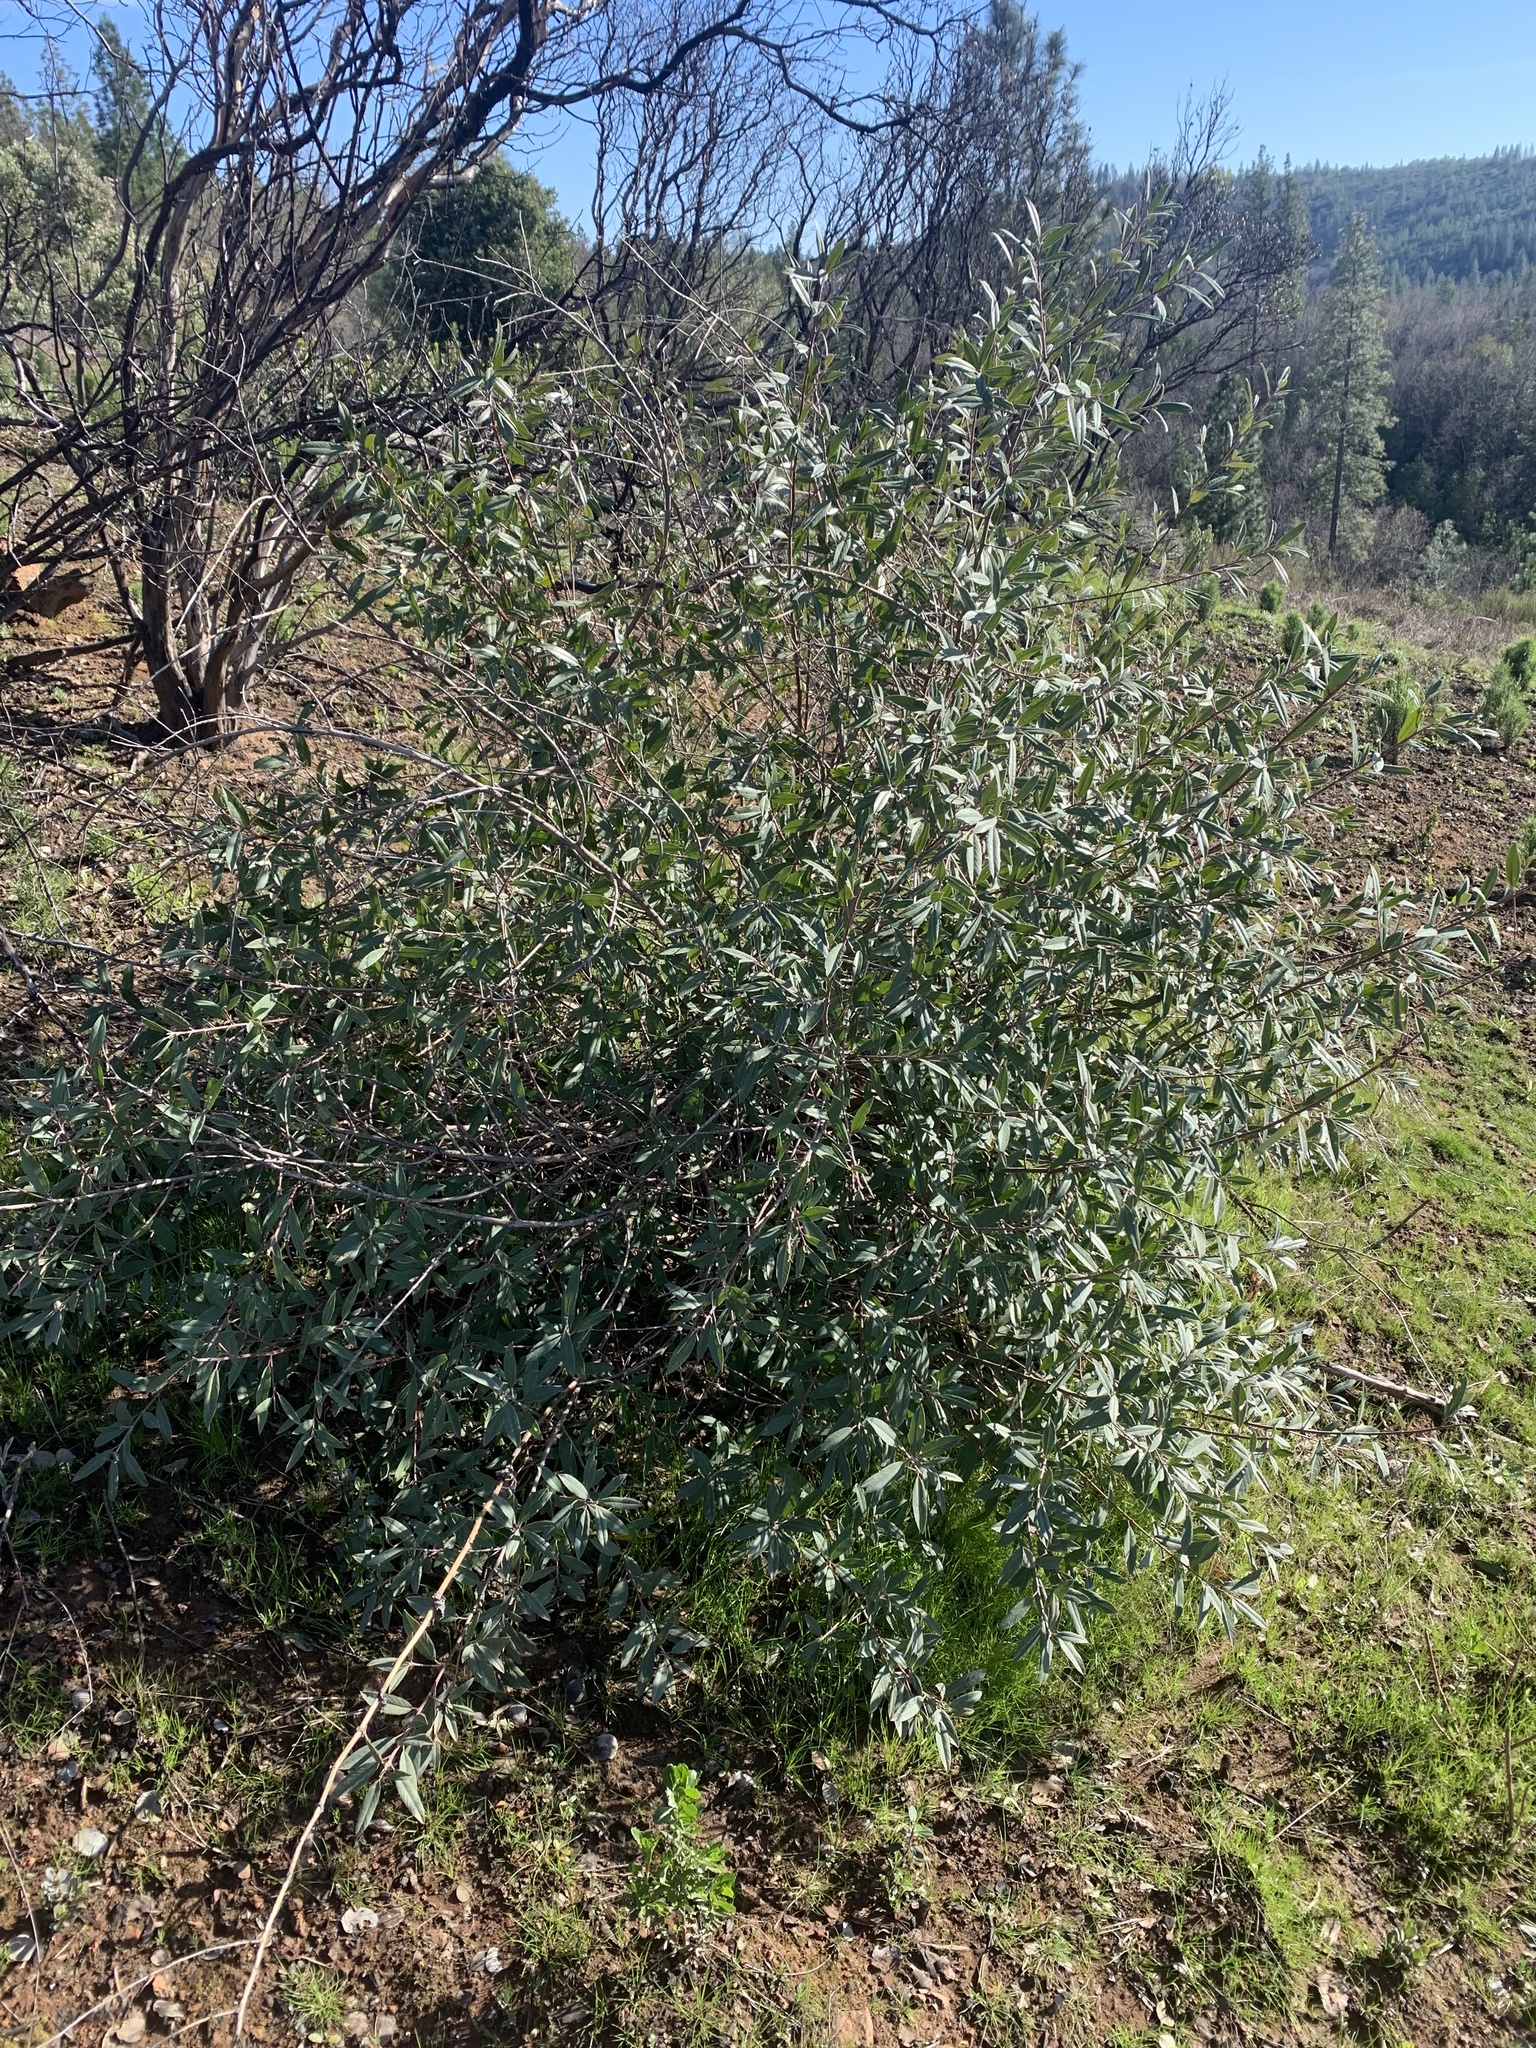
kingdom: Plantae
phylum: Tracheophyta
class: Magnoliopsida
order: Rosales
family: Rhamnaceae
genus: Frangula
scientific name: Frangula californica
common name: California buckthorn
